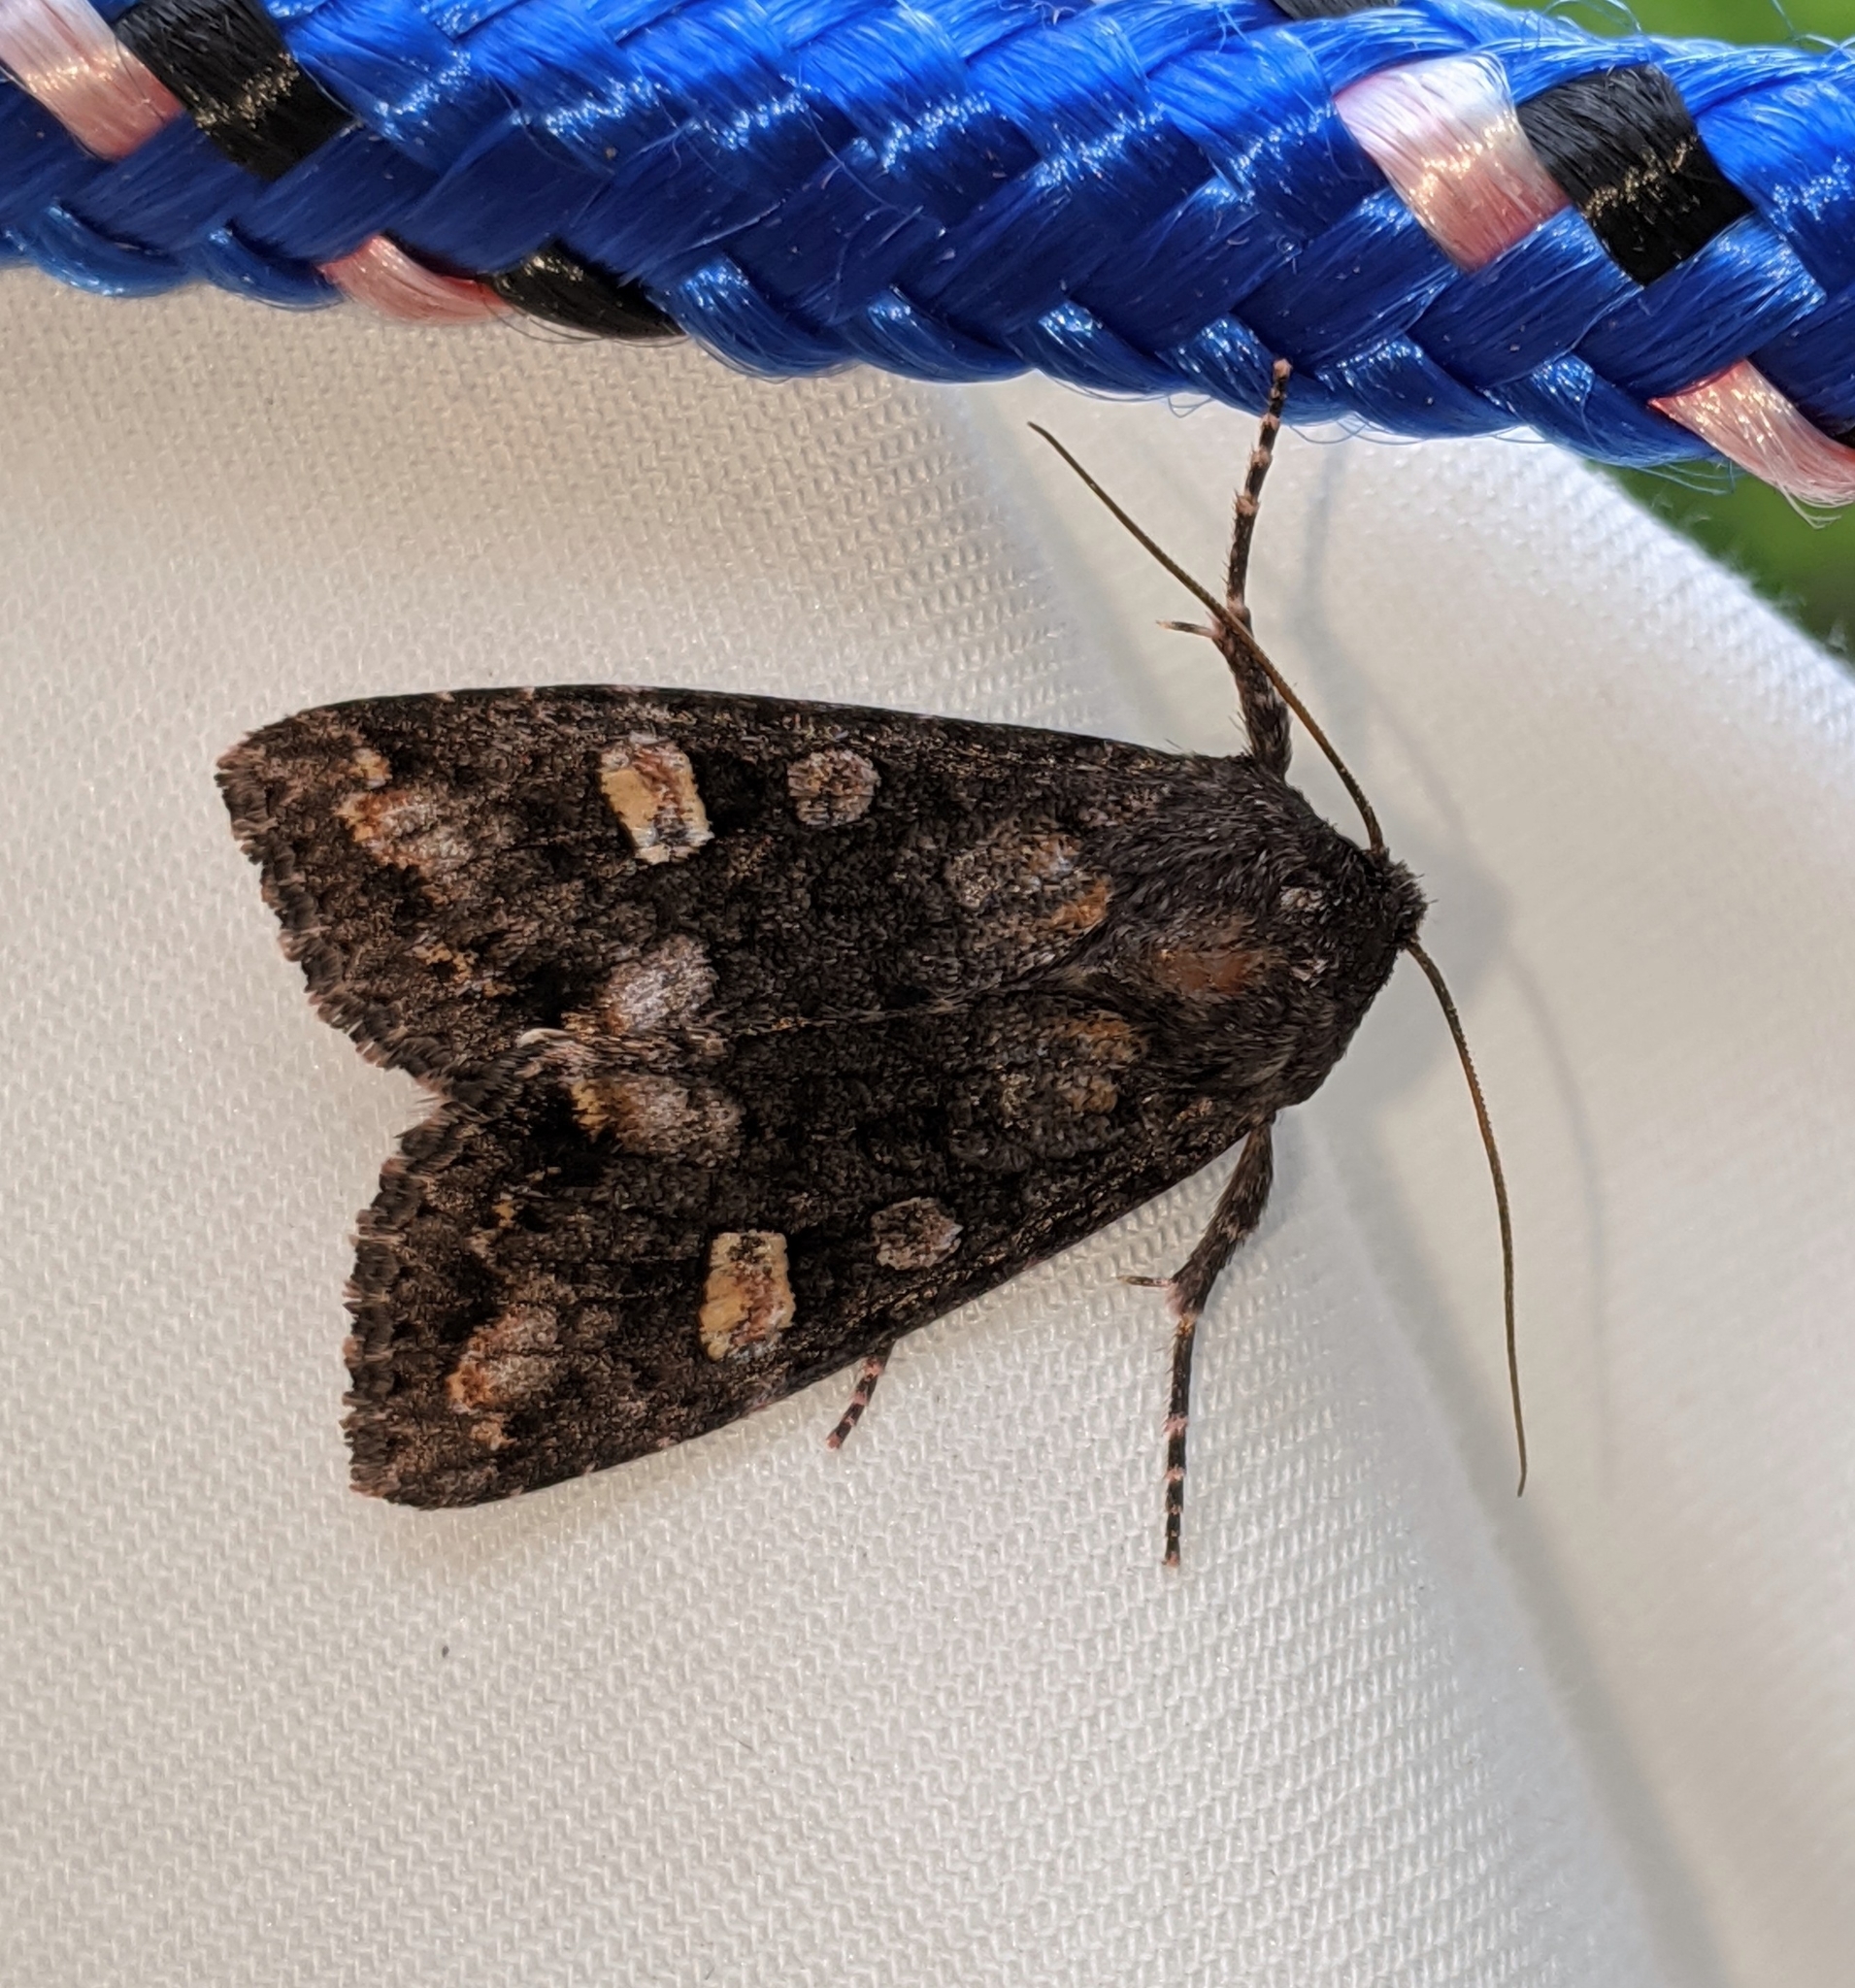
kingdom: Animalia
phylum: Arthropoda
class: Insecta
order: Lepidoptera
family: Noctuidae
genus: Spiramater
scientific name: Spiramater lutra
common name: Otter spiramater moth
